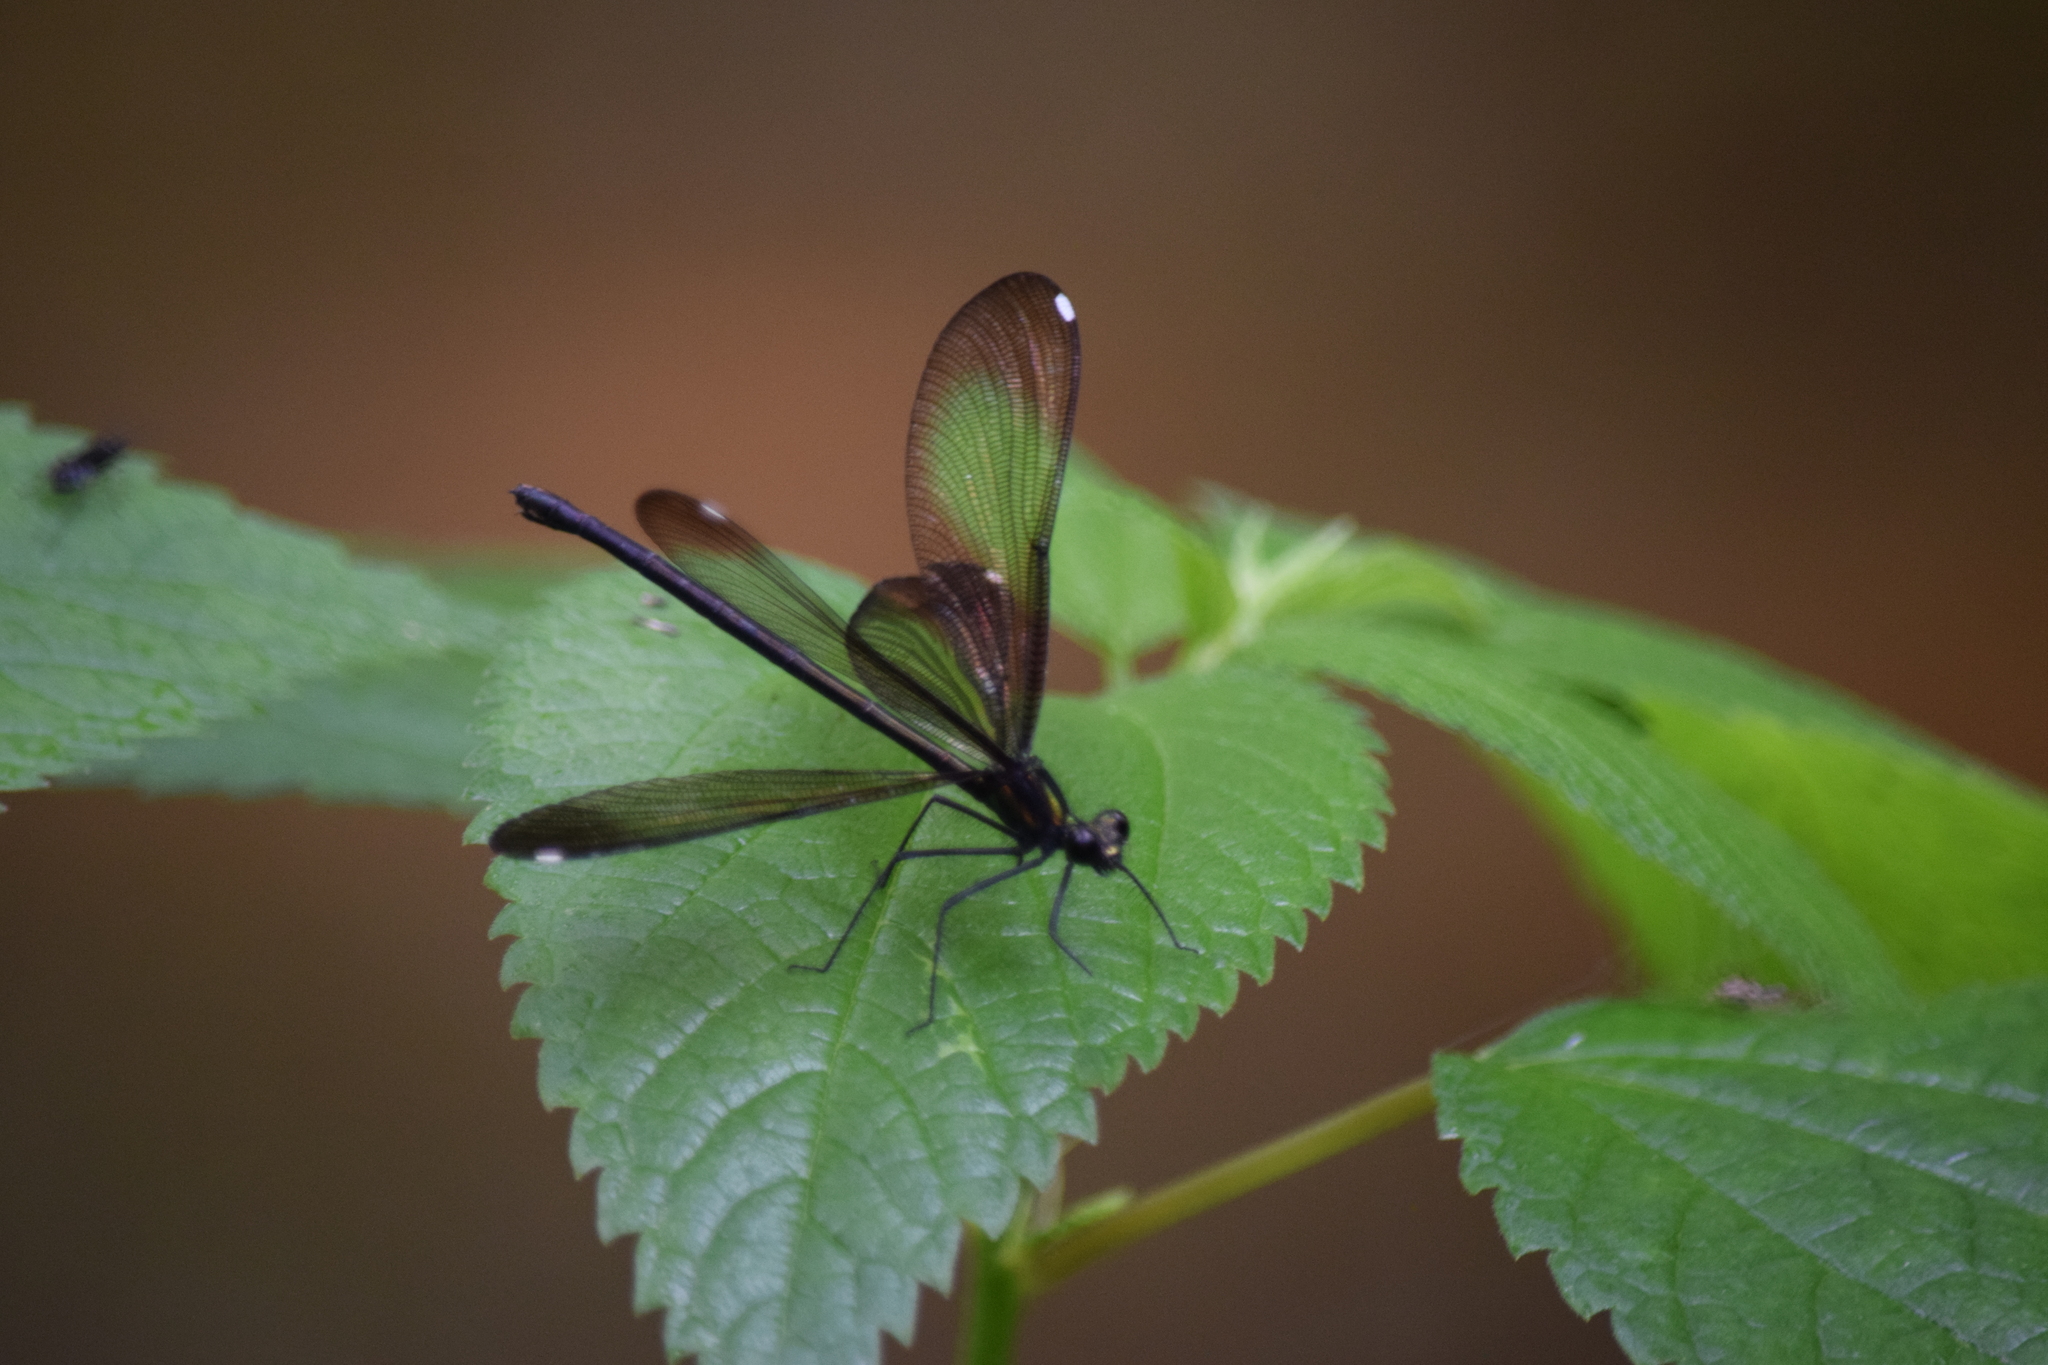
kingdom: Animalia
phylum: Arthropoda
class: Insecta
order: Odonata
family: Calopterygidae
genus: Calopteryx
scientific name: Calopteryx maculata
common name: Ebony jewelwing
